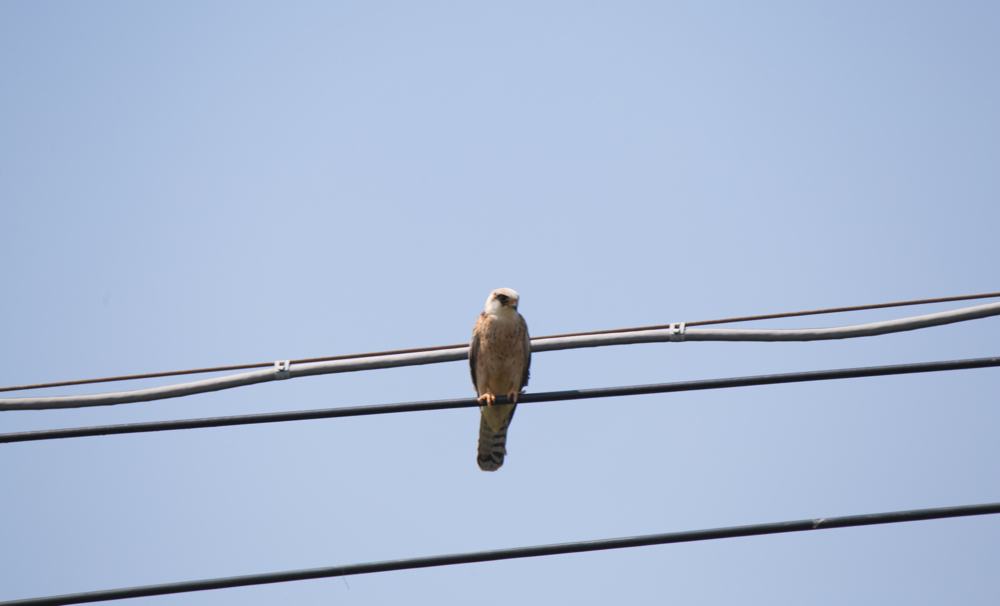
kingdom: Animalia
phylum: Chordata
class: Aves
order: Falconiformes
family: Falconidae
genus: Falco
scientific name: Falco vespertinus
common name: Red-footed falcon
